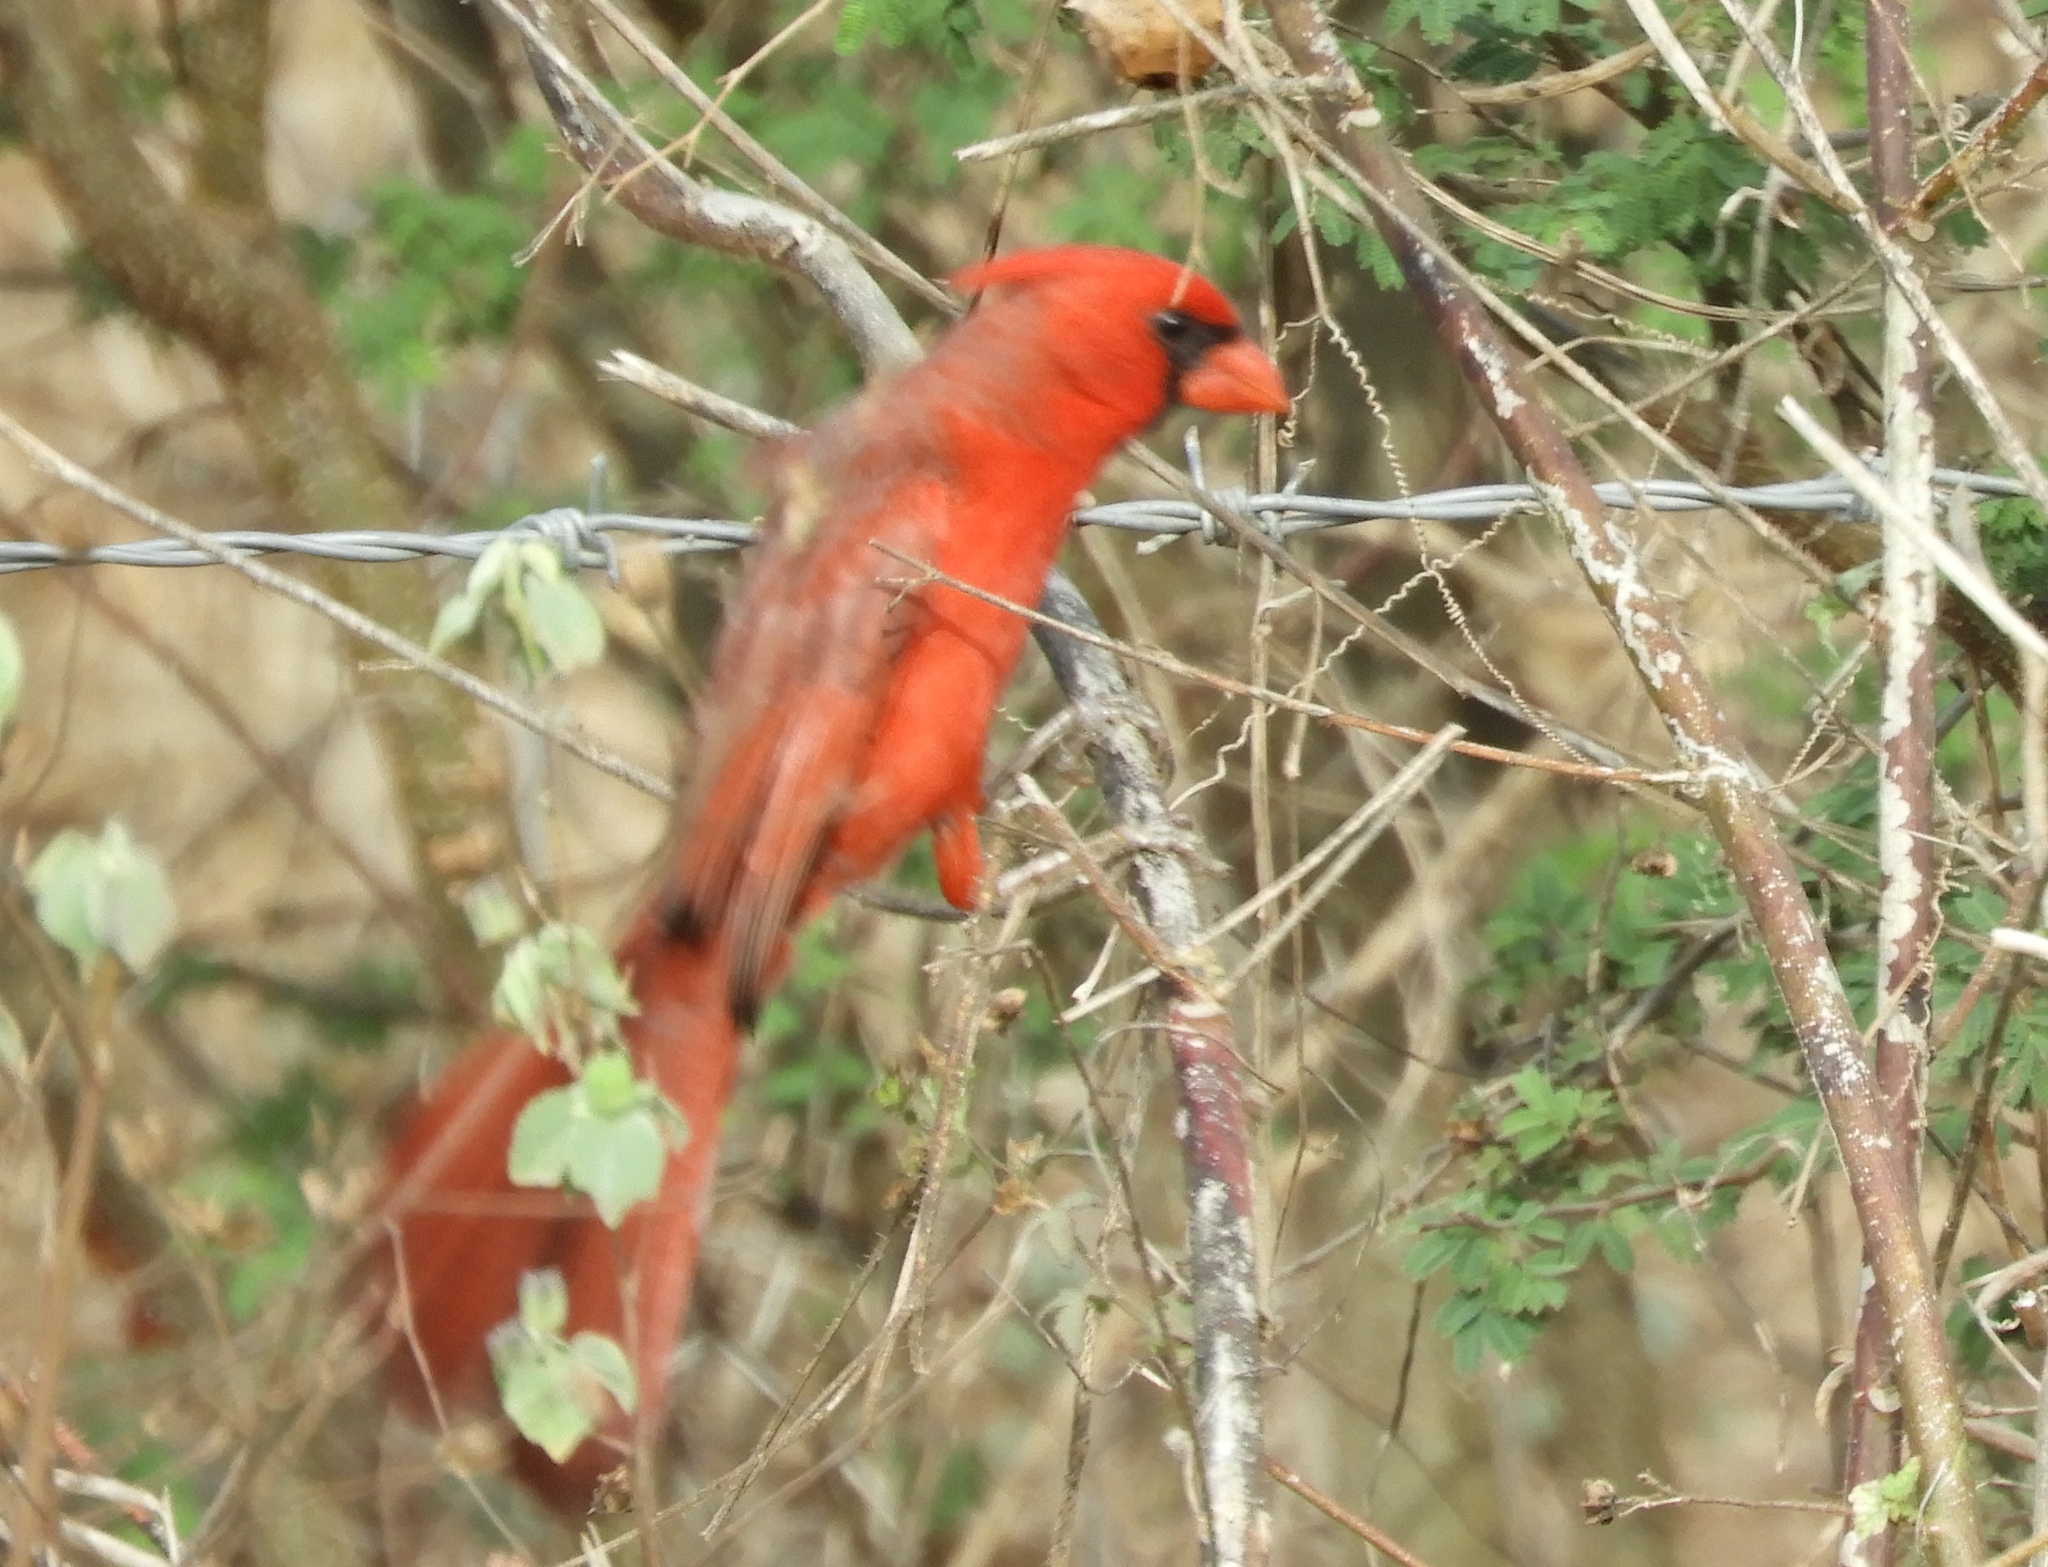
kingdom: Animalia
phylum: Chordata
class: Aves
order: Passeriformes
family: Cardinalidae
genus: Cardinalis
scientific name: Cardinalis cardinalis
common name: Northern cardinal
